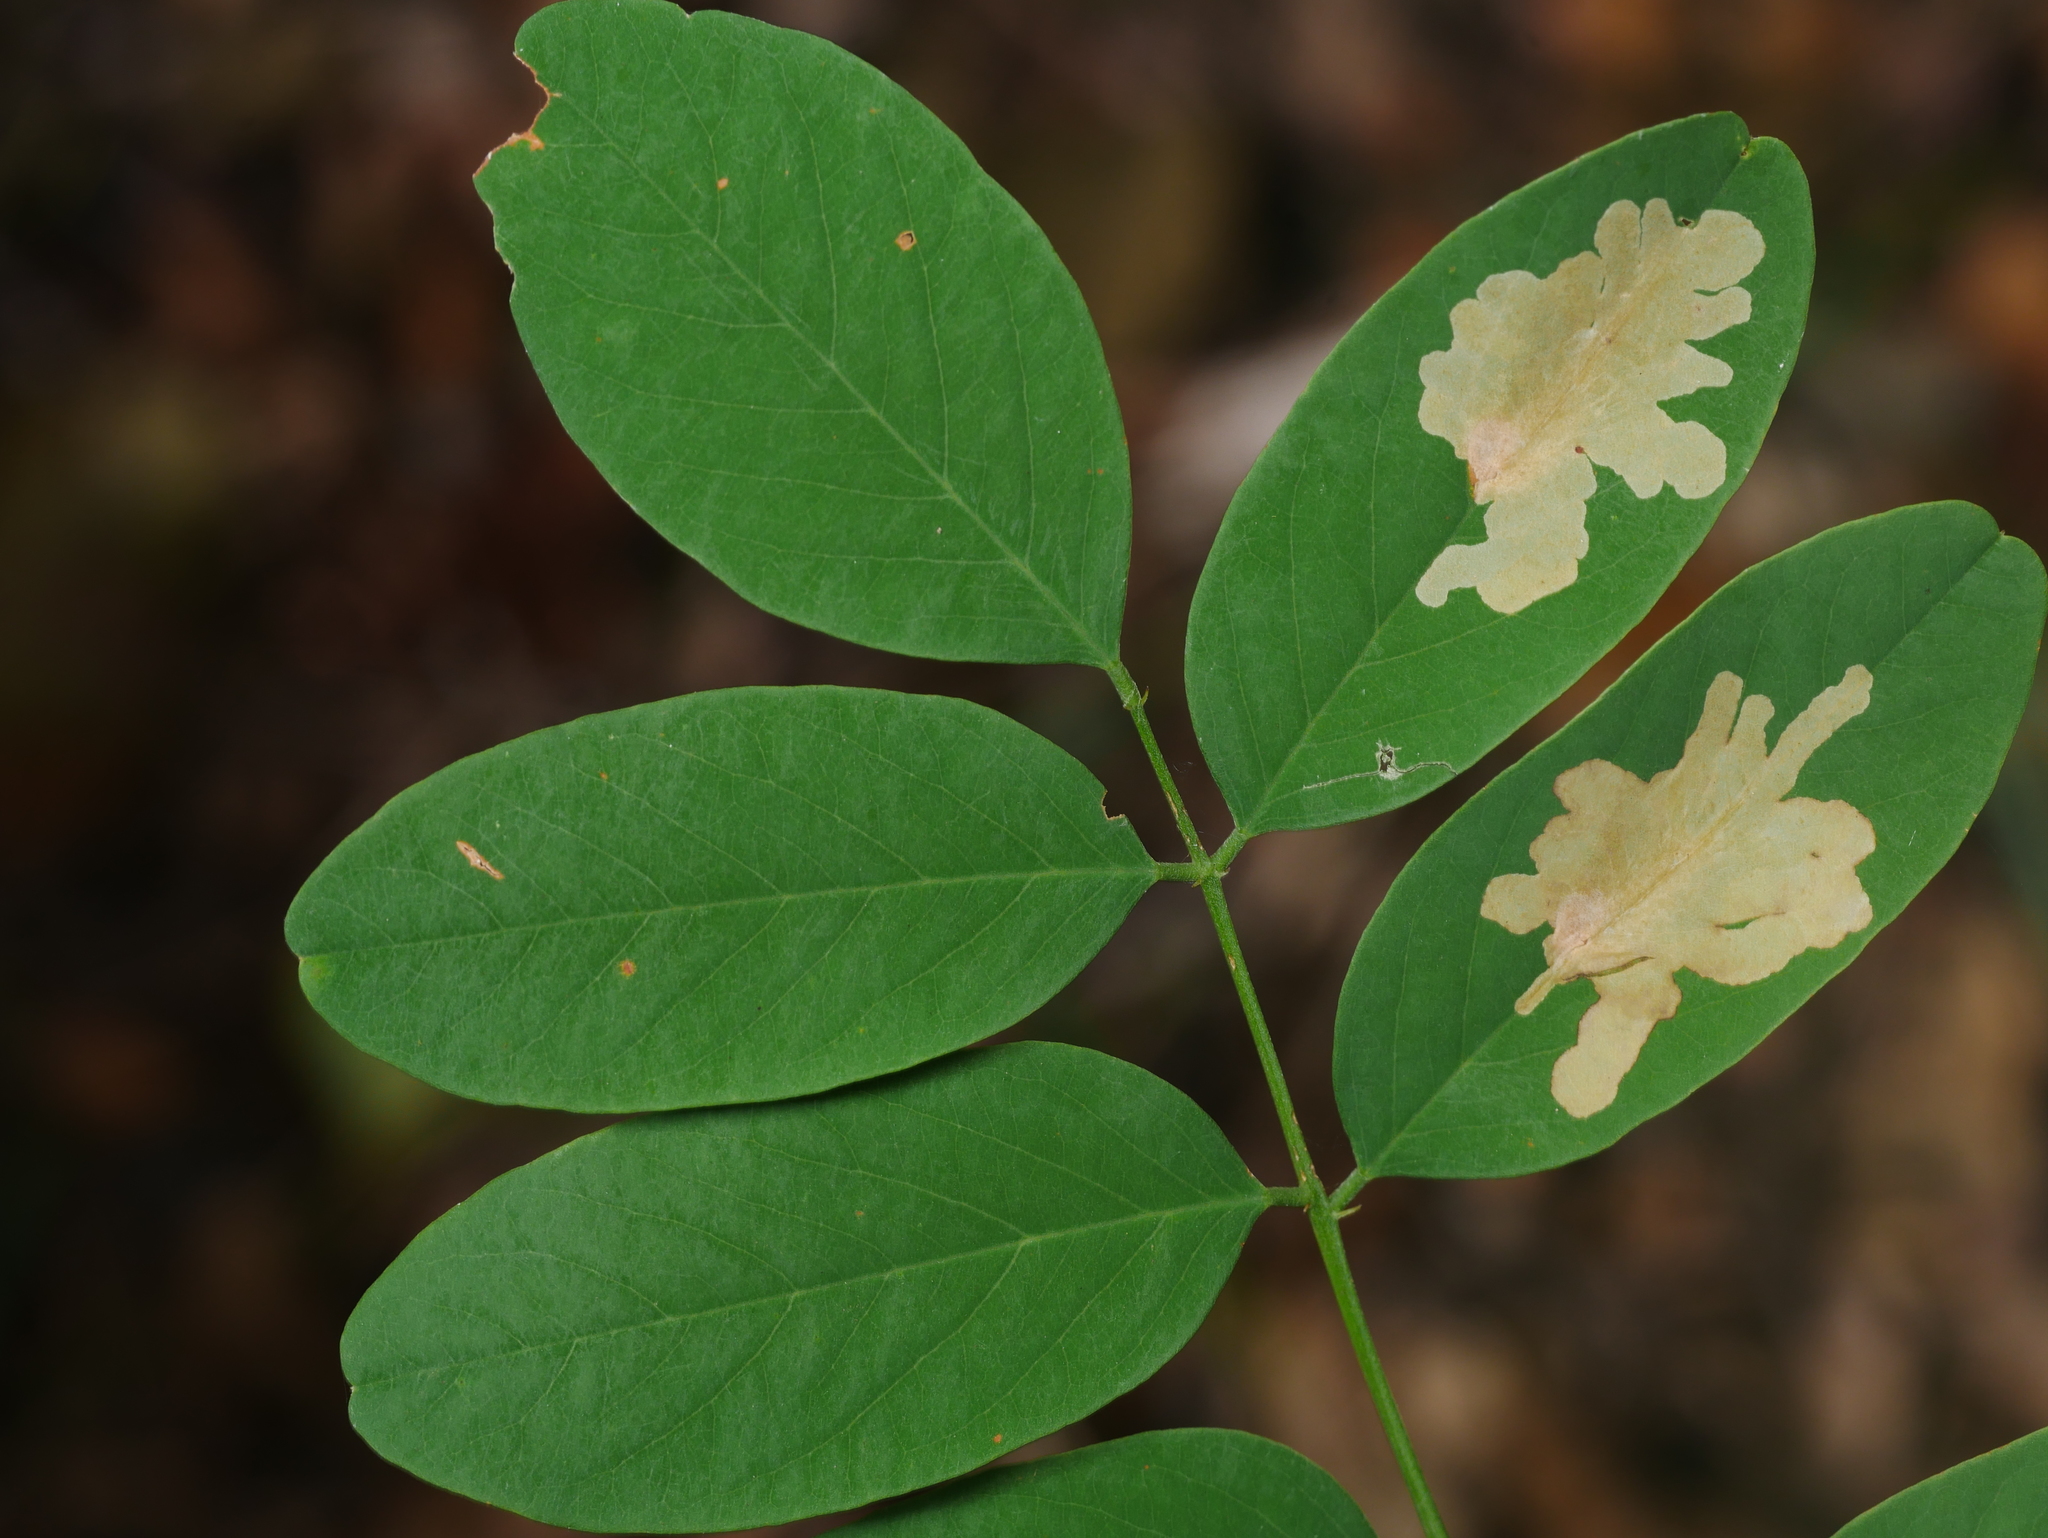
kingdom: Animalia
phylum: Arthropoda
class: Insecta
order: Lepidoptera
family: Gracillariidae
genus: Parectopa
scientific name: Parectopa robiniella
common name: Locust digitate leafminer
